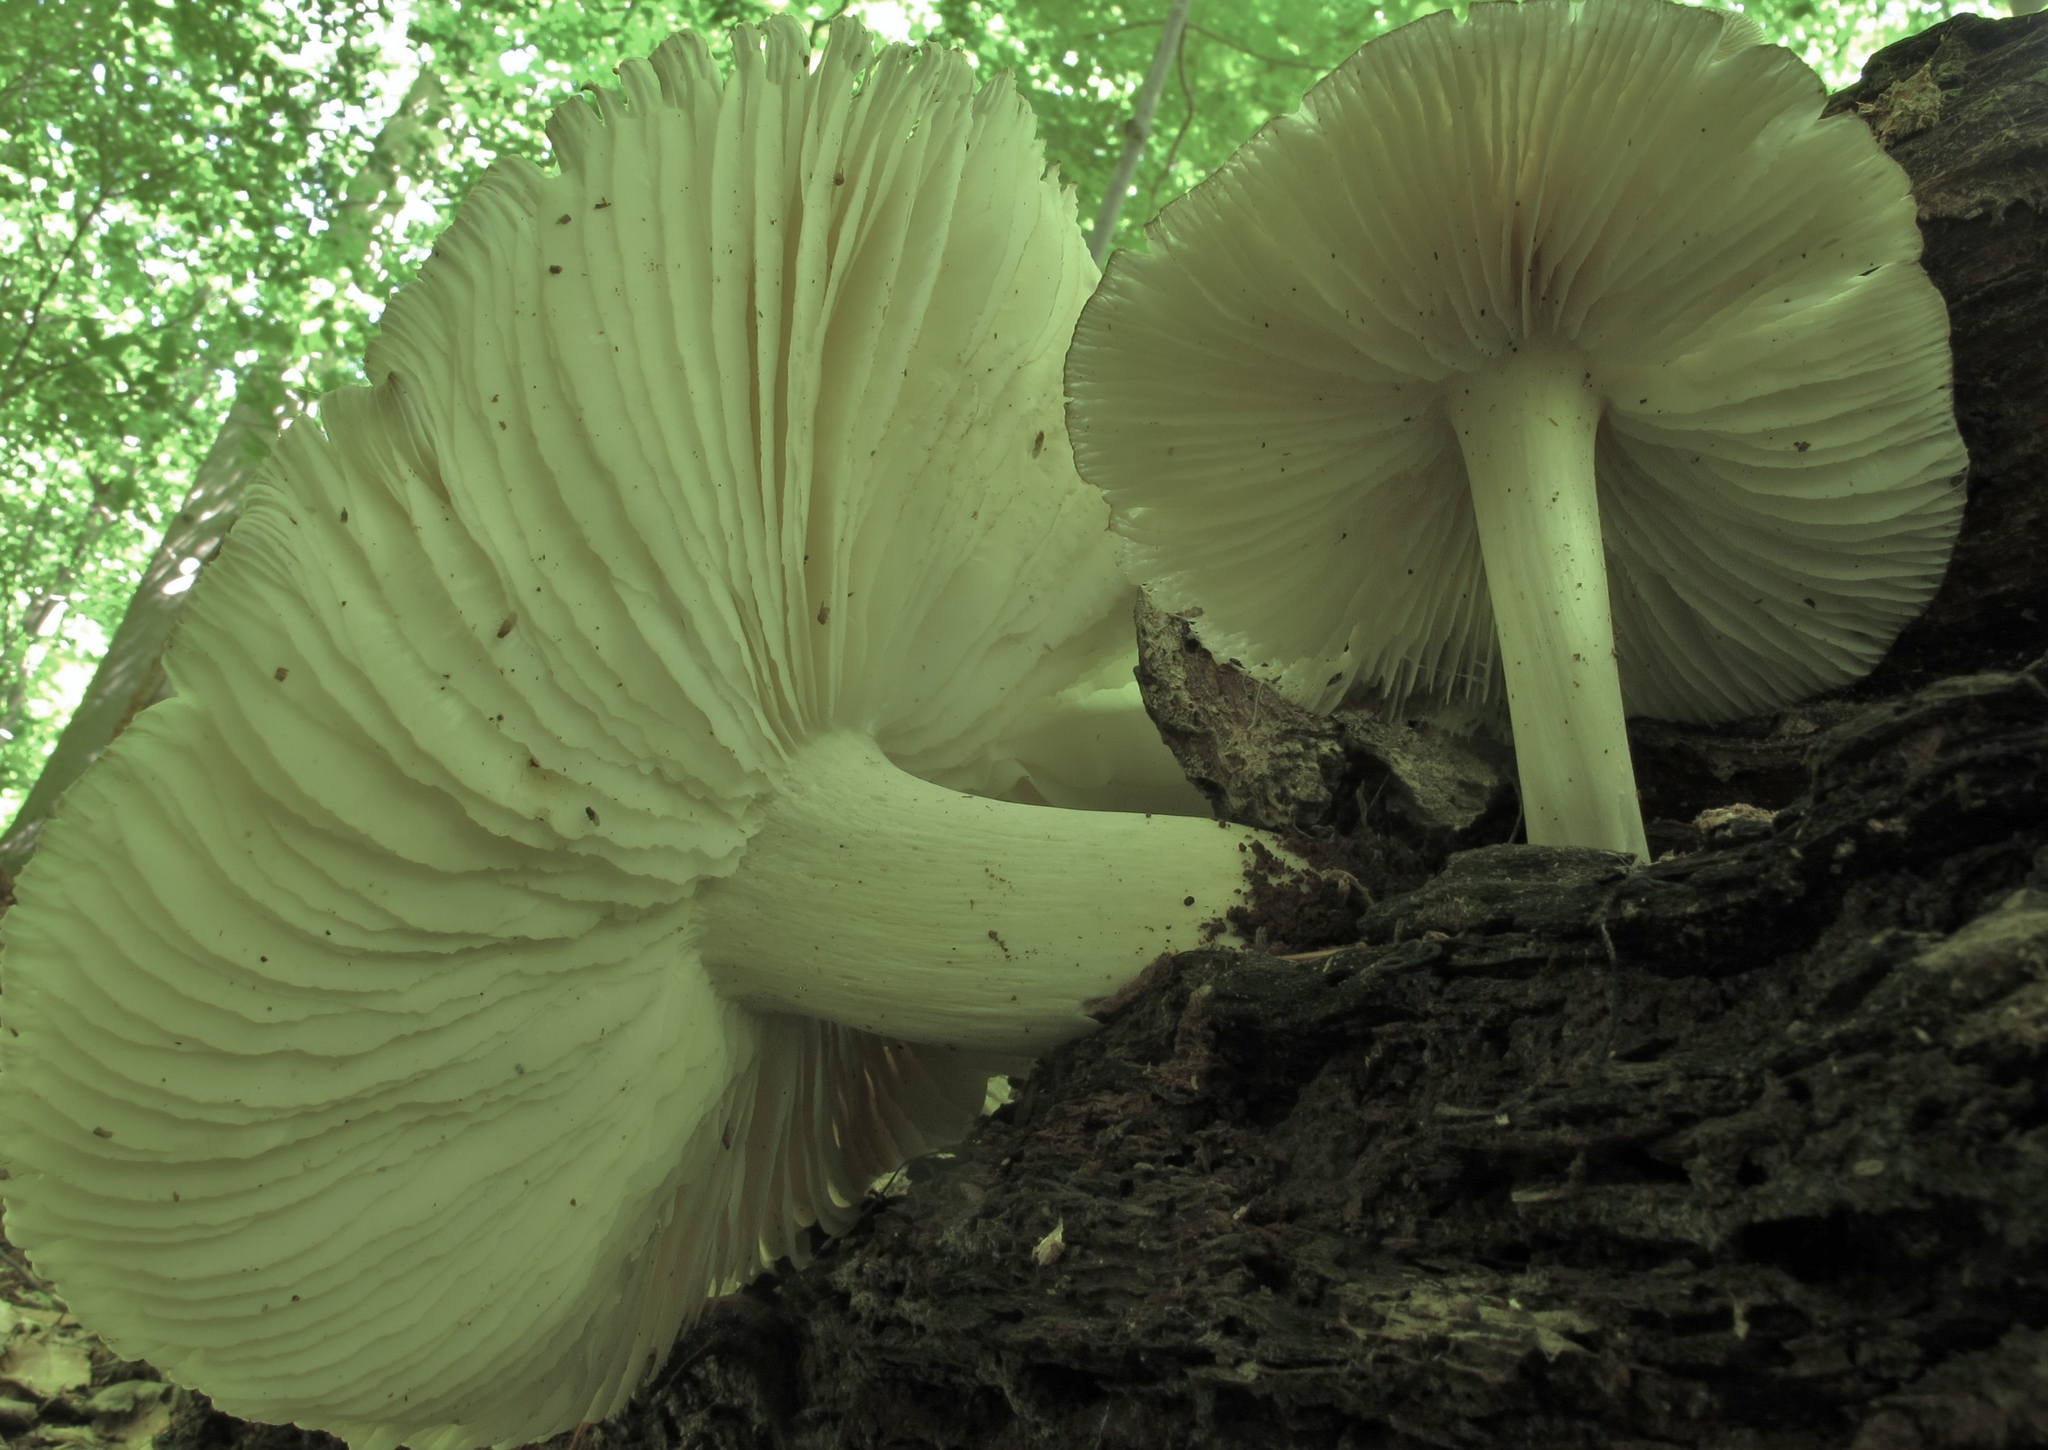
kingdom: Fungi
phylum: Basidiomycota
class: Agaricomycetes
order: Agaricales
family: Tricholomataceae
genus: Megacollybia
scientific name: Megacollybia rodmanii
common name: Eastern american platterful mushroom
